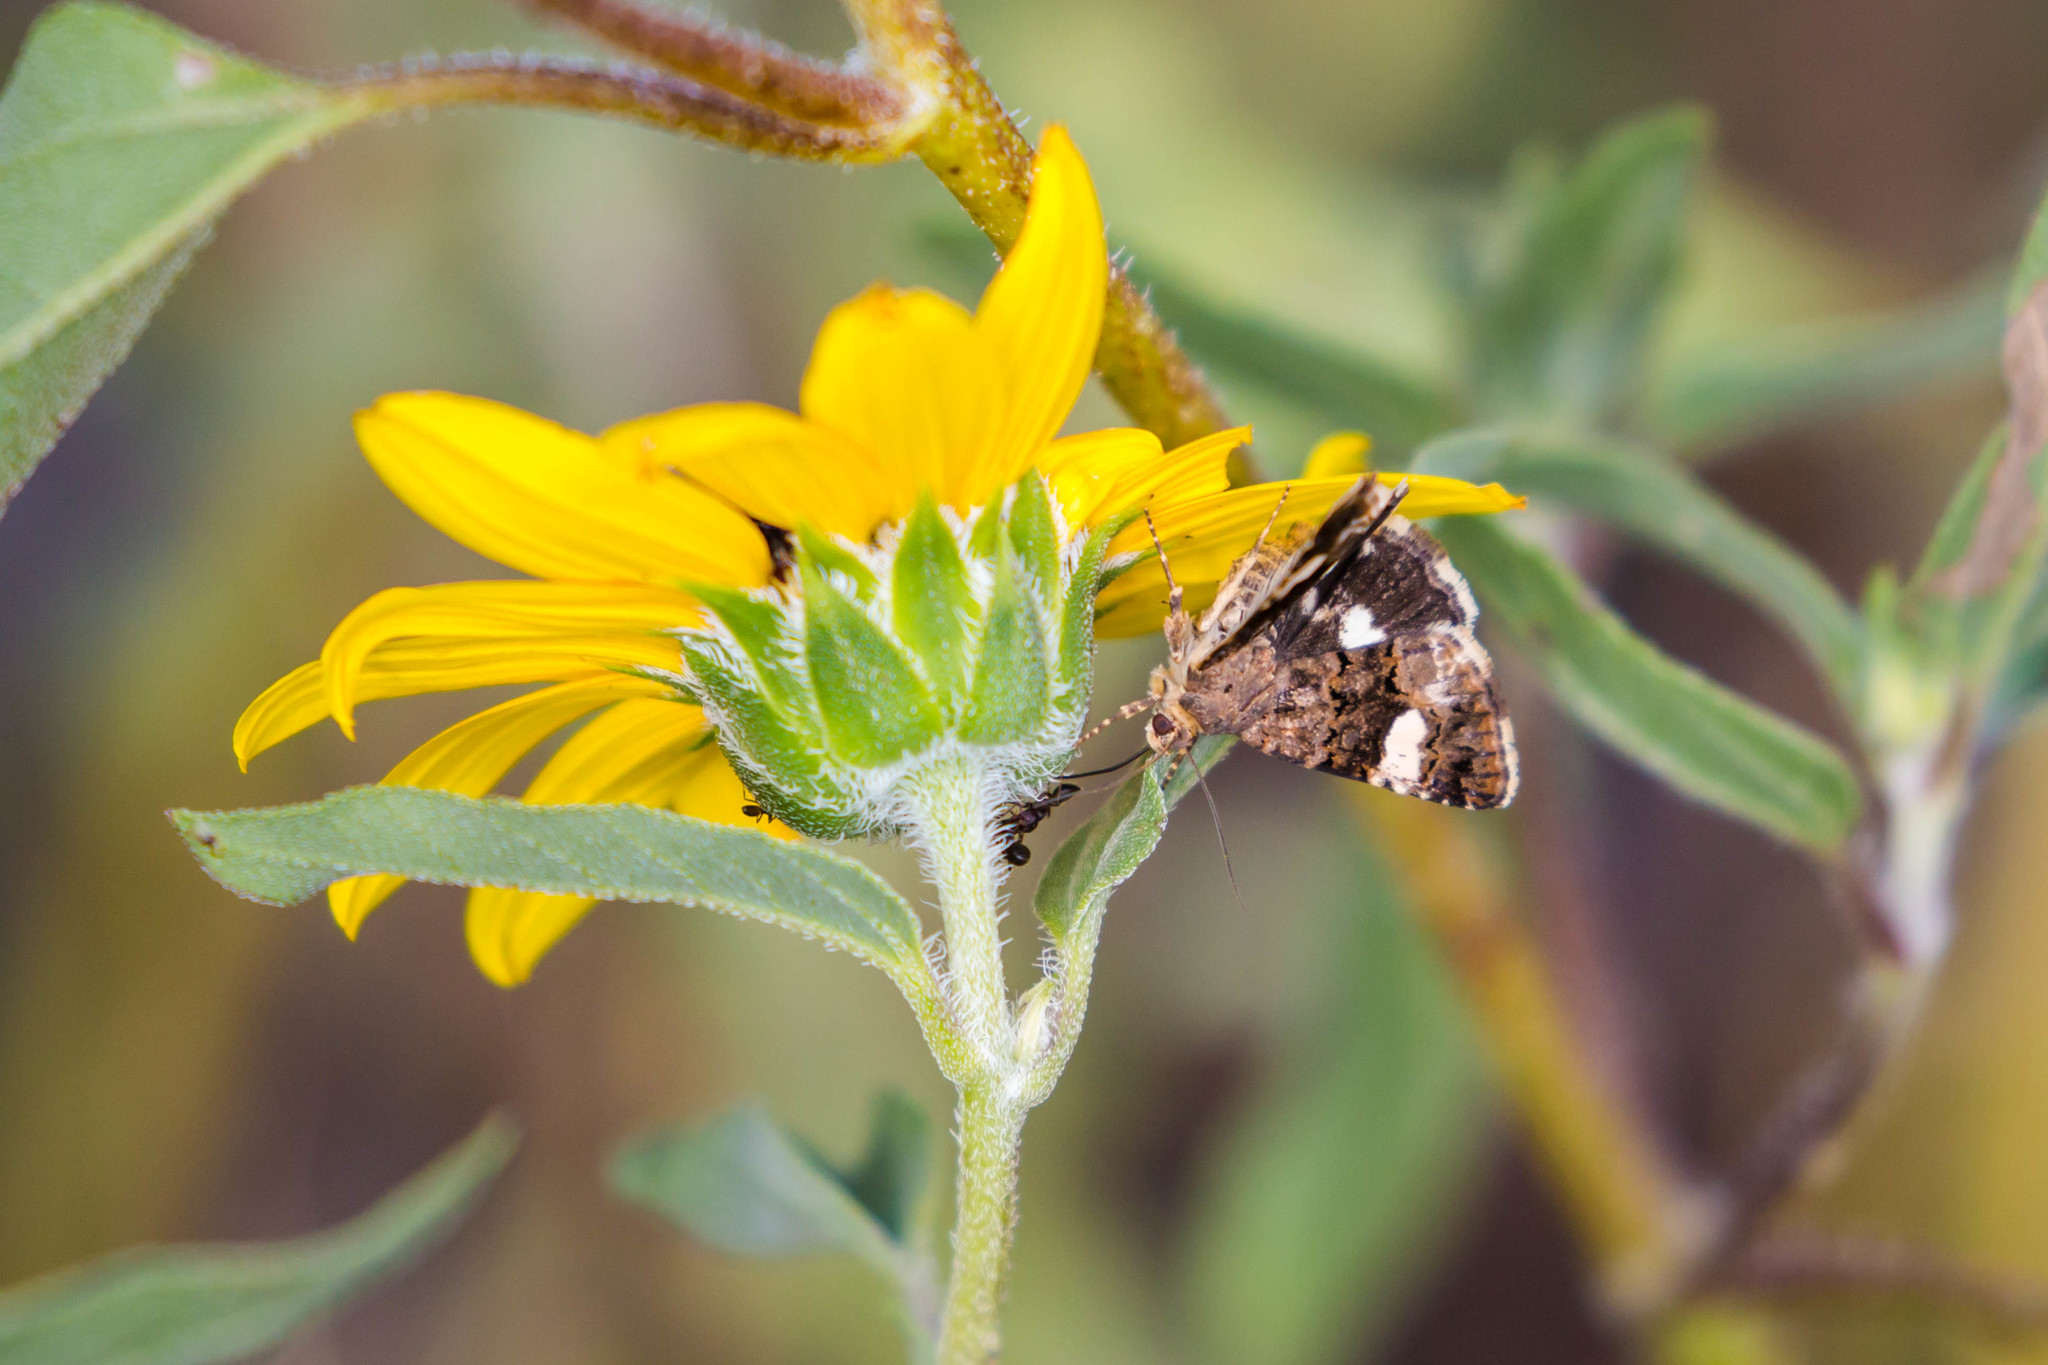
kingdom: Animalia
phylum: Arthropoda
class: Insecta
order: Lepidoptera
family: Erebidae
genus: Tyta
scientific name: Tyta luctuosa
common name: Four-spotted
